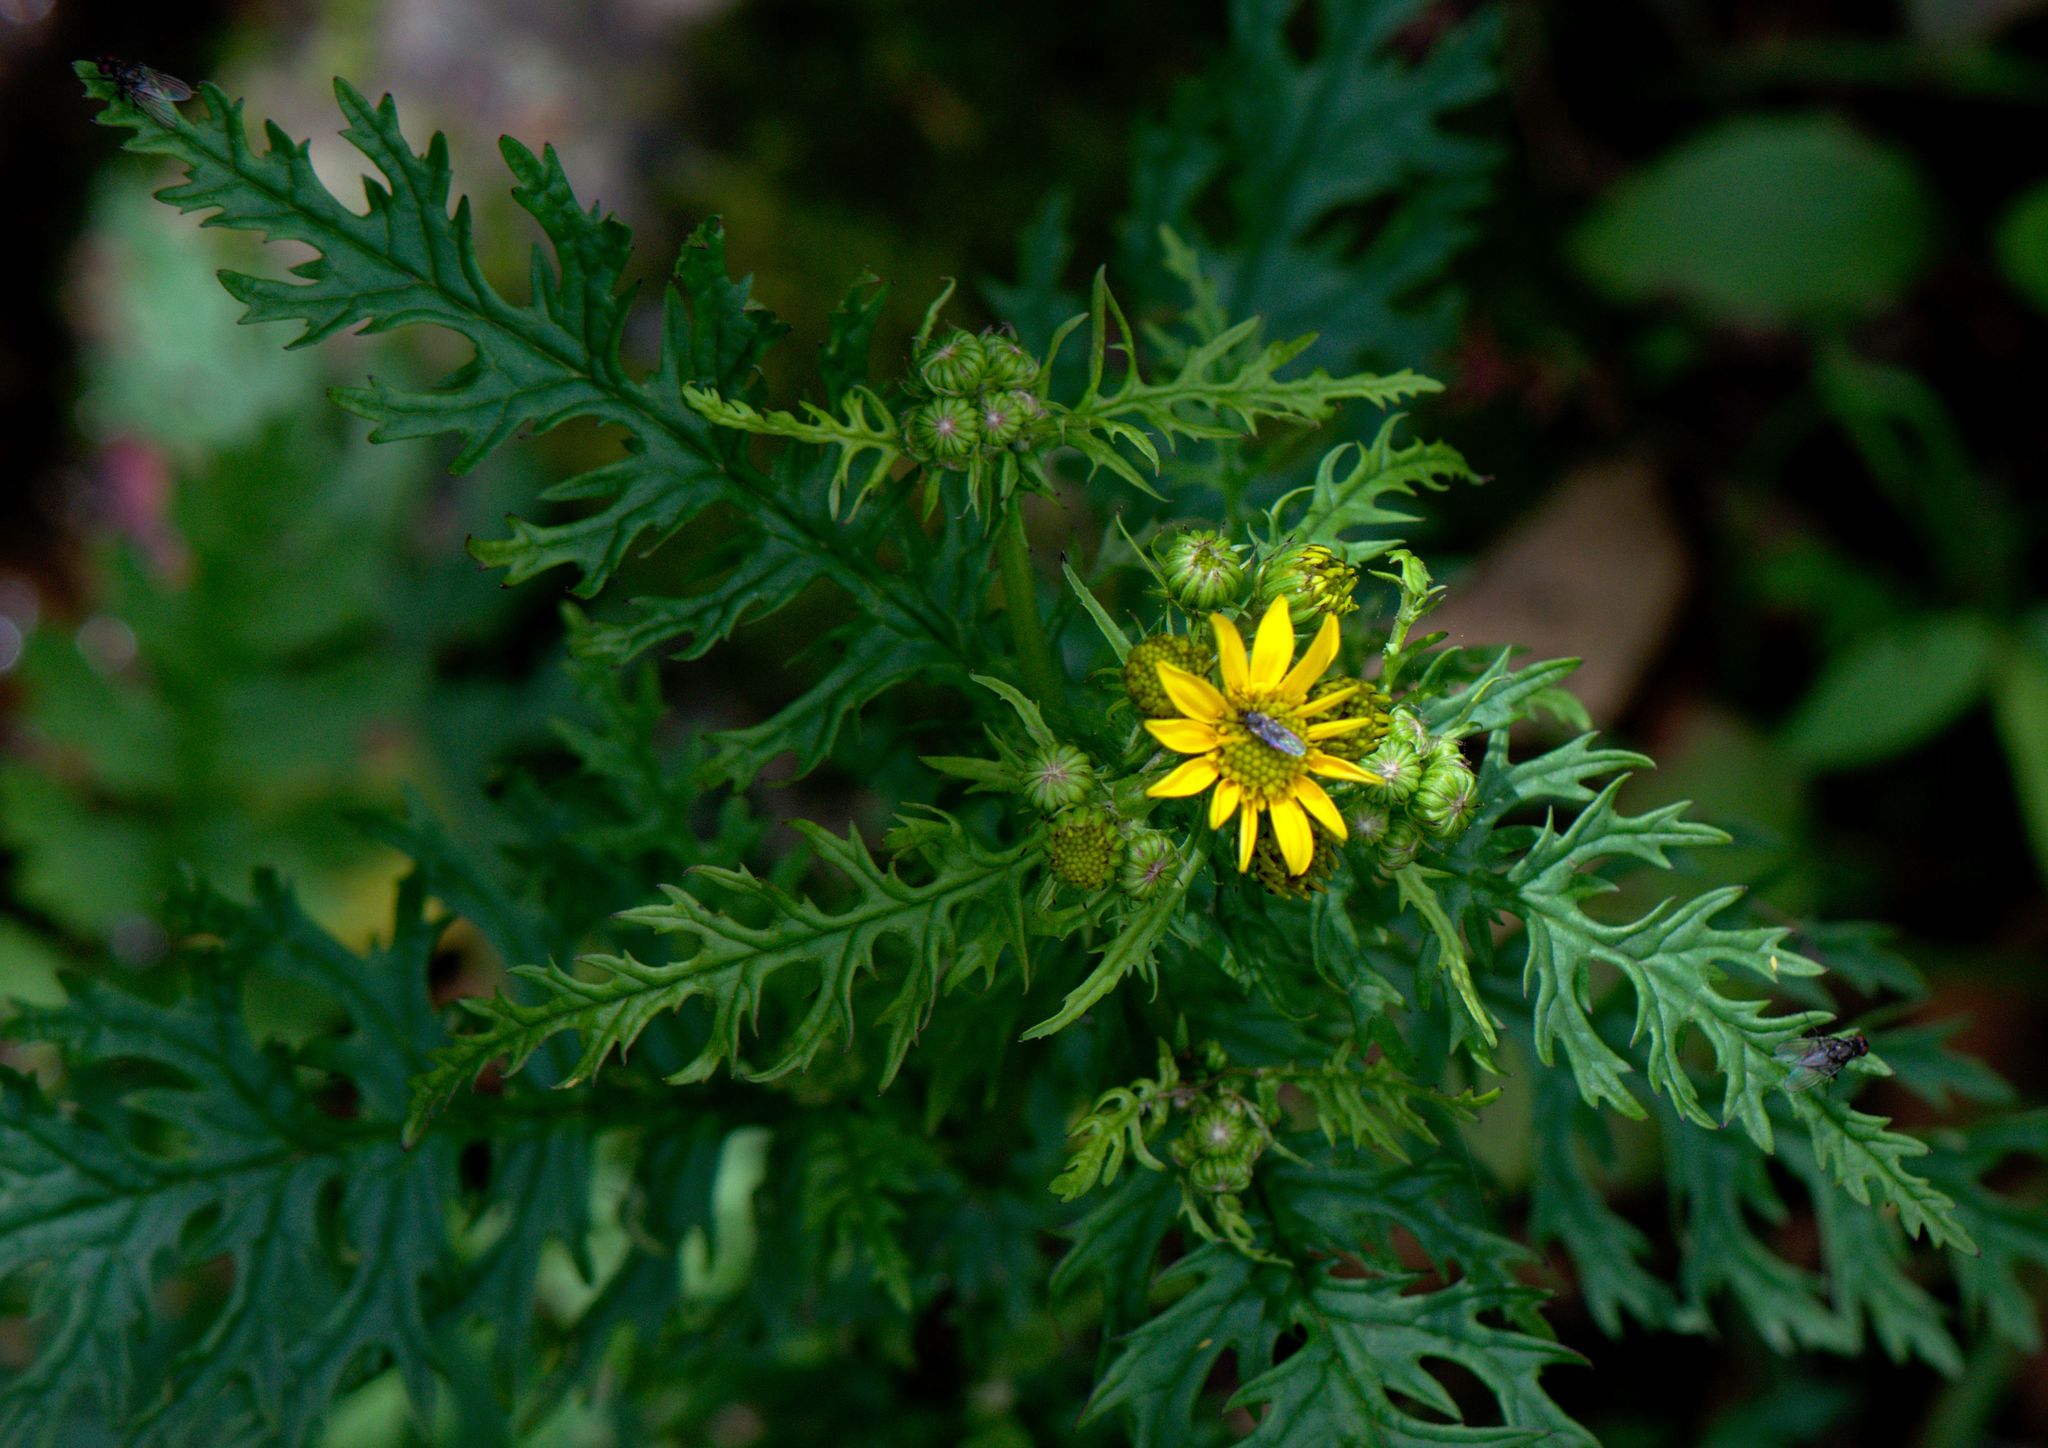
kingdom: Plantae
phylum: Tracheophyta
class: Magnoliopsida
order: Asterales
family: Asteraceae
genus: Senecio
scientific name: Senecio chrysanthemoides
